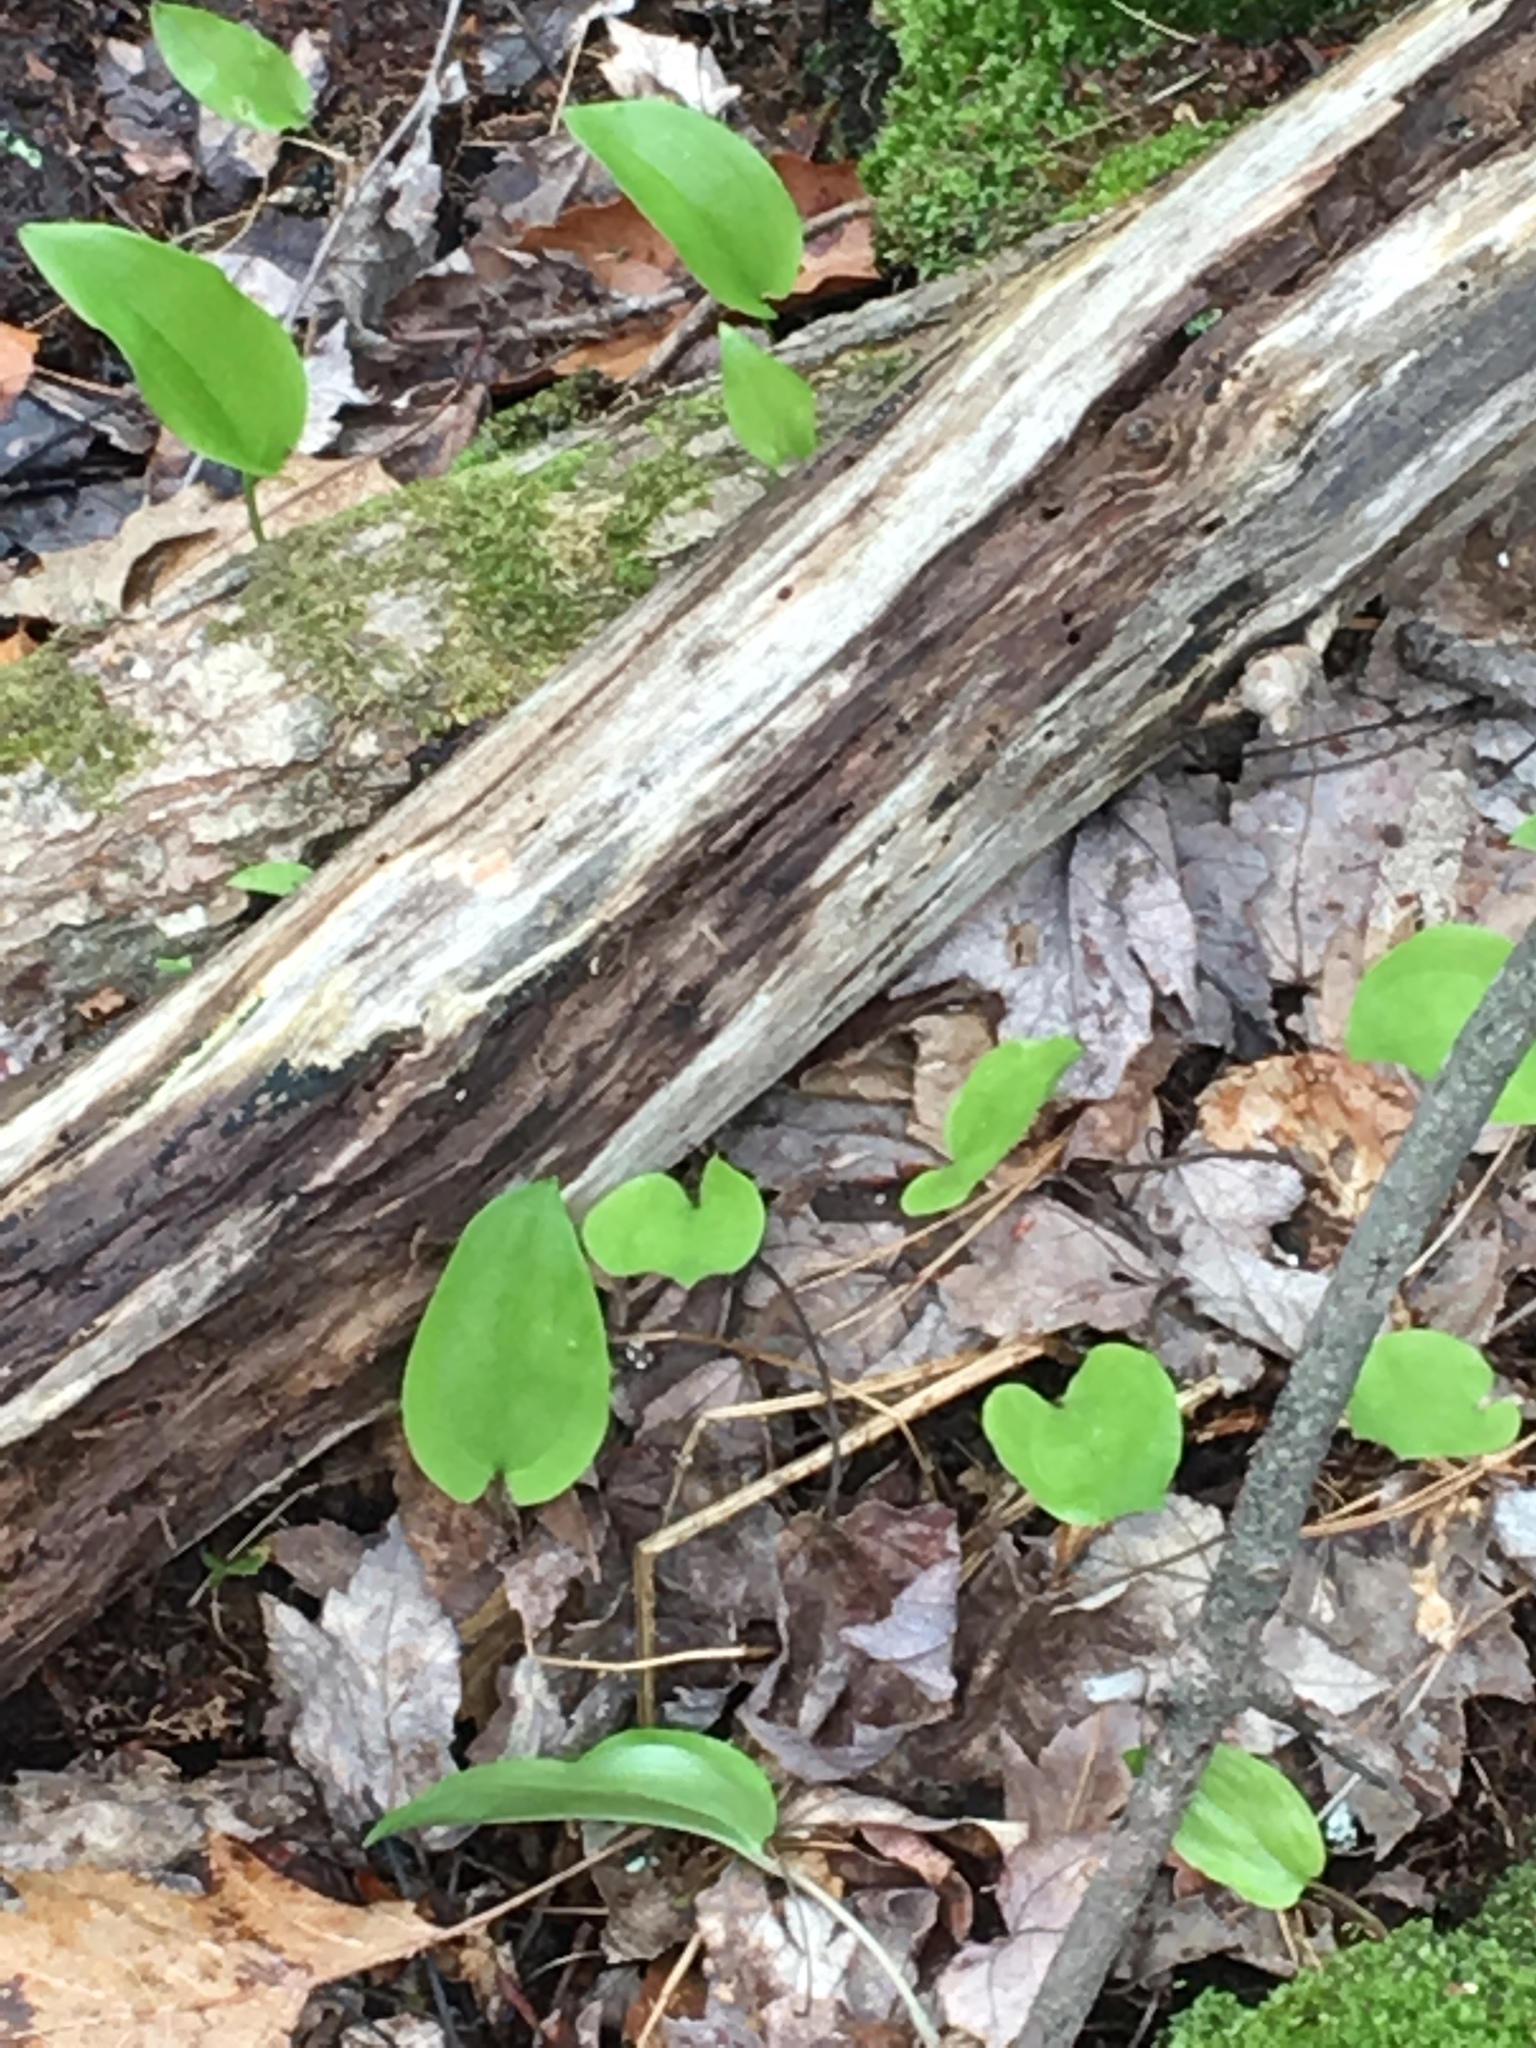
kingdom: Plantae
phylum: Tracheophyta
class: Liliopsida
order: Asparagales
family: Asparagaceae
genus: Maianthemum
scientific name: Maianthemum canadense
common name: False lily-of-the-valley
